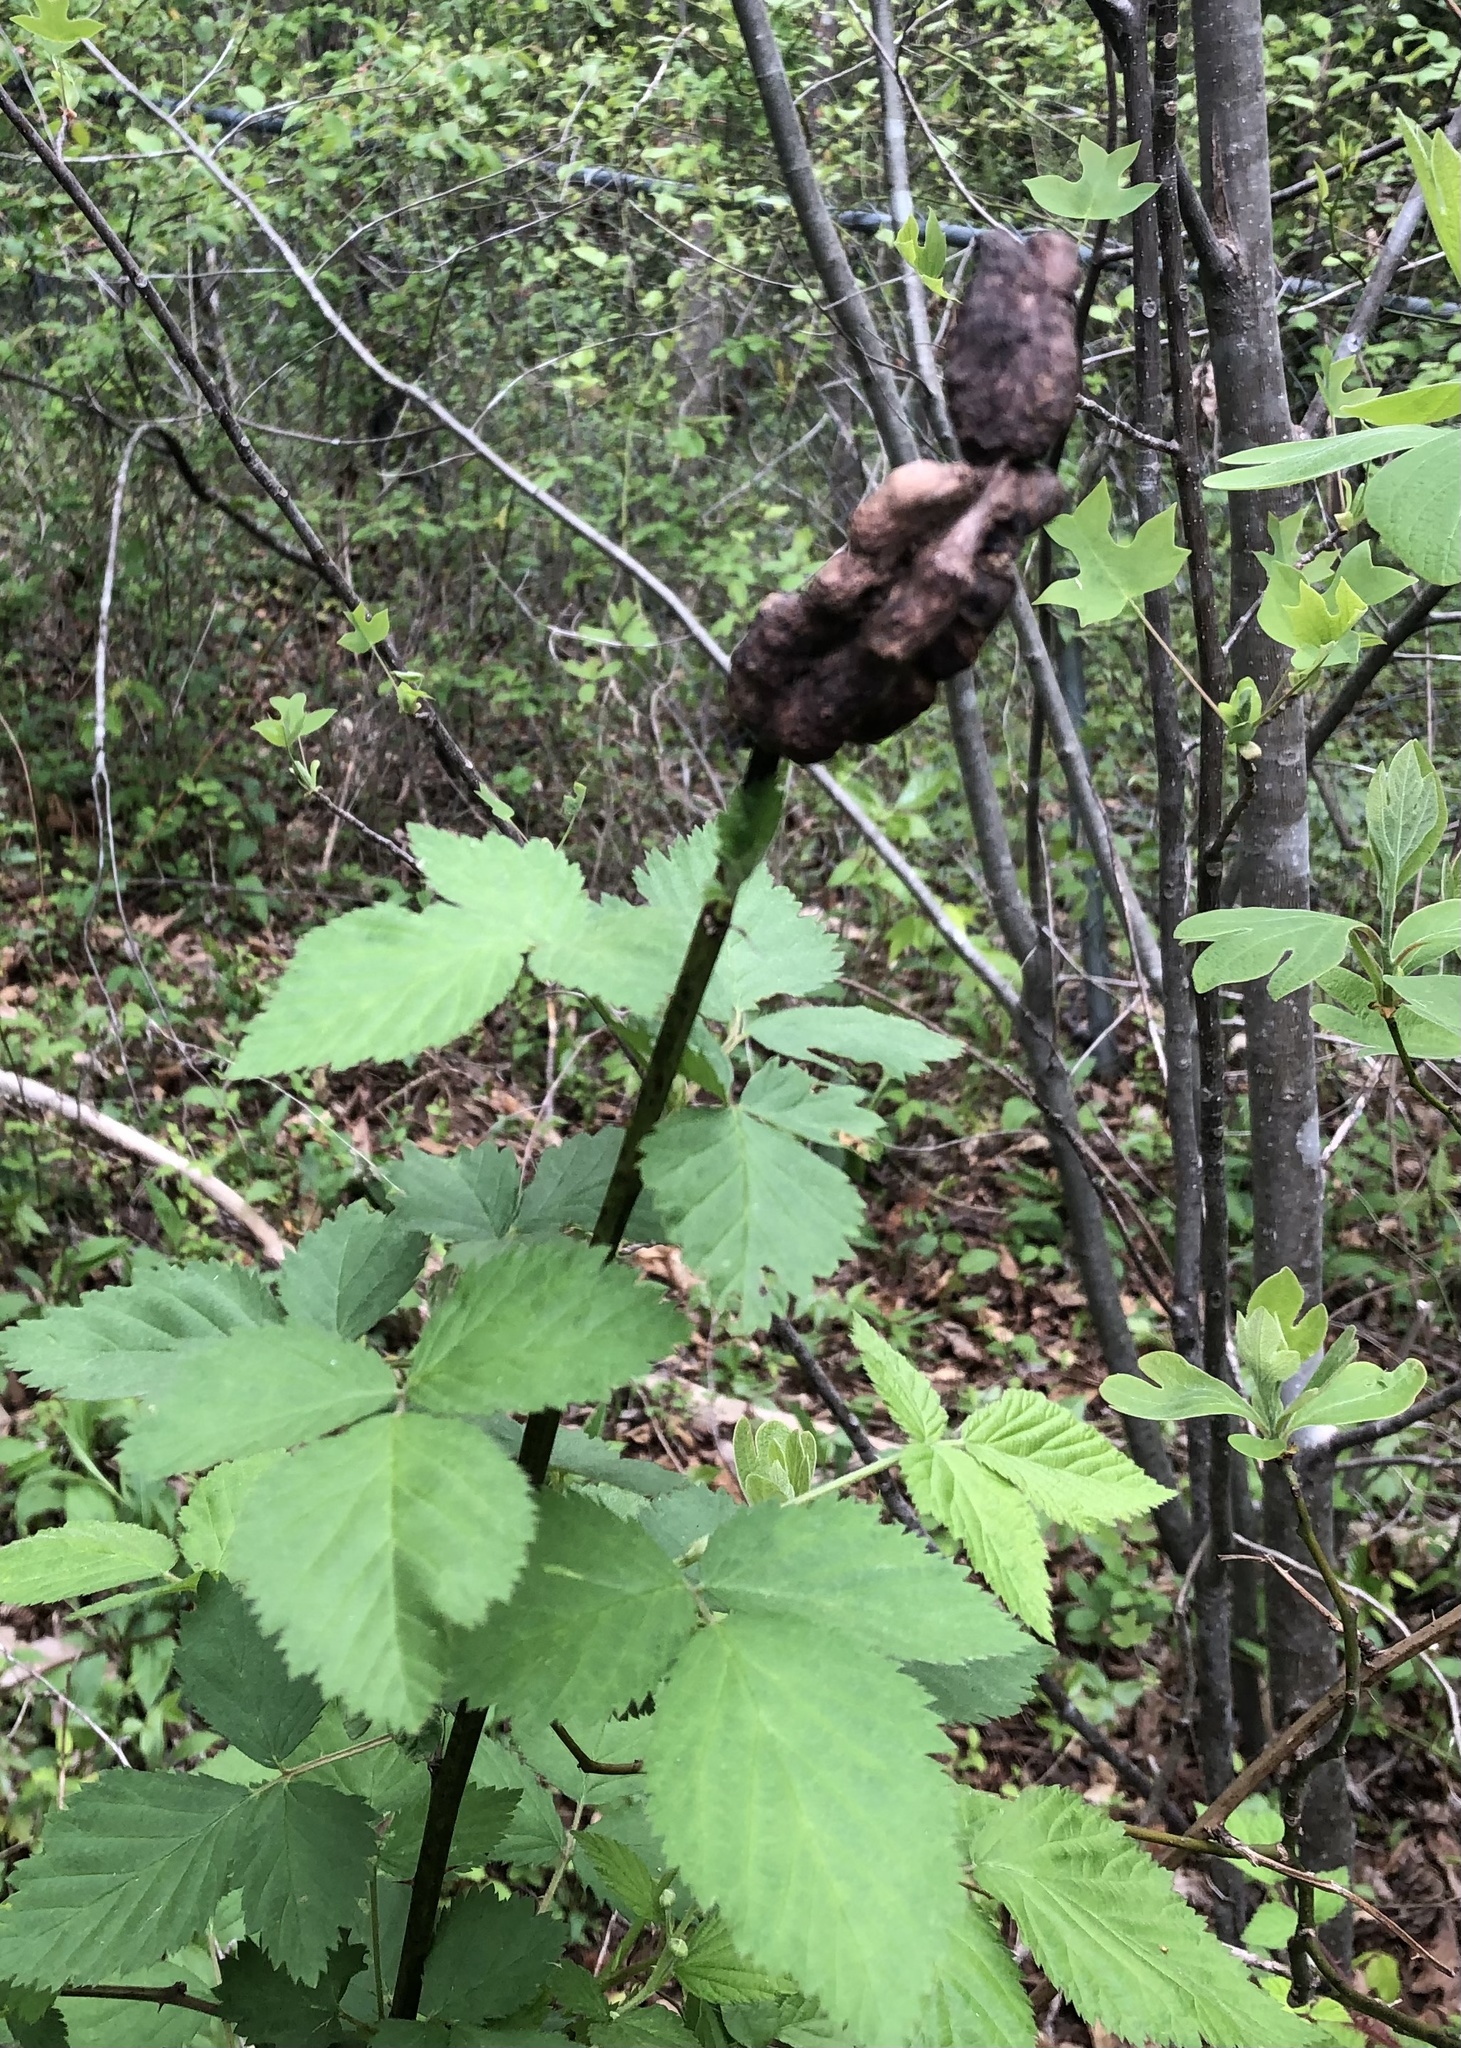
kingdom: Animalia
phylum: Arthropoda
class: Insecta
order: Hymenoptera
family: Cynipidae
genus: Diastrophus
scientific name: Diastrophus
